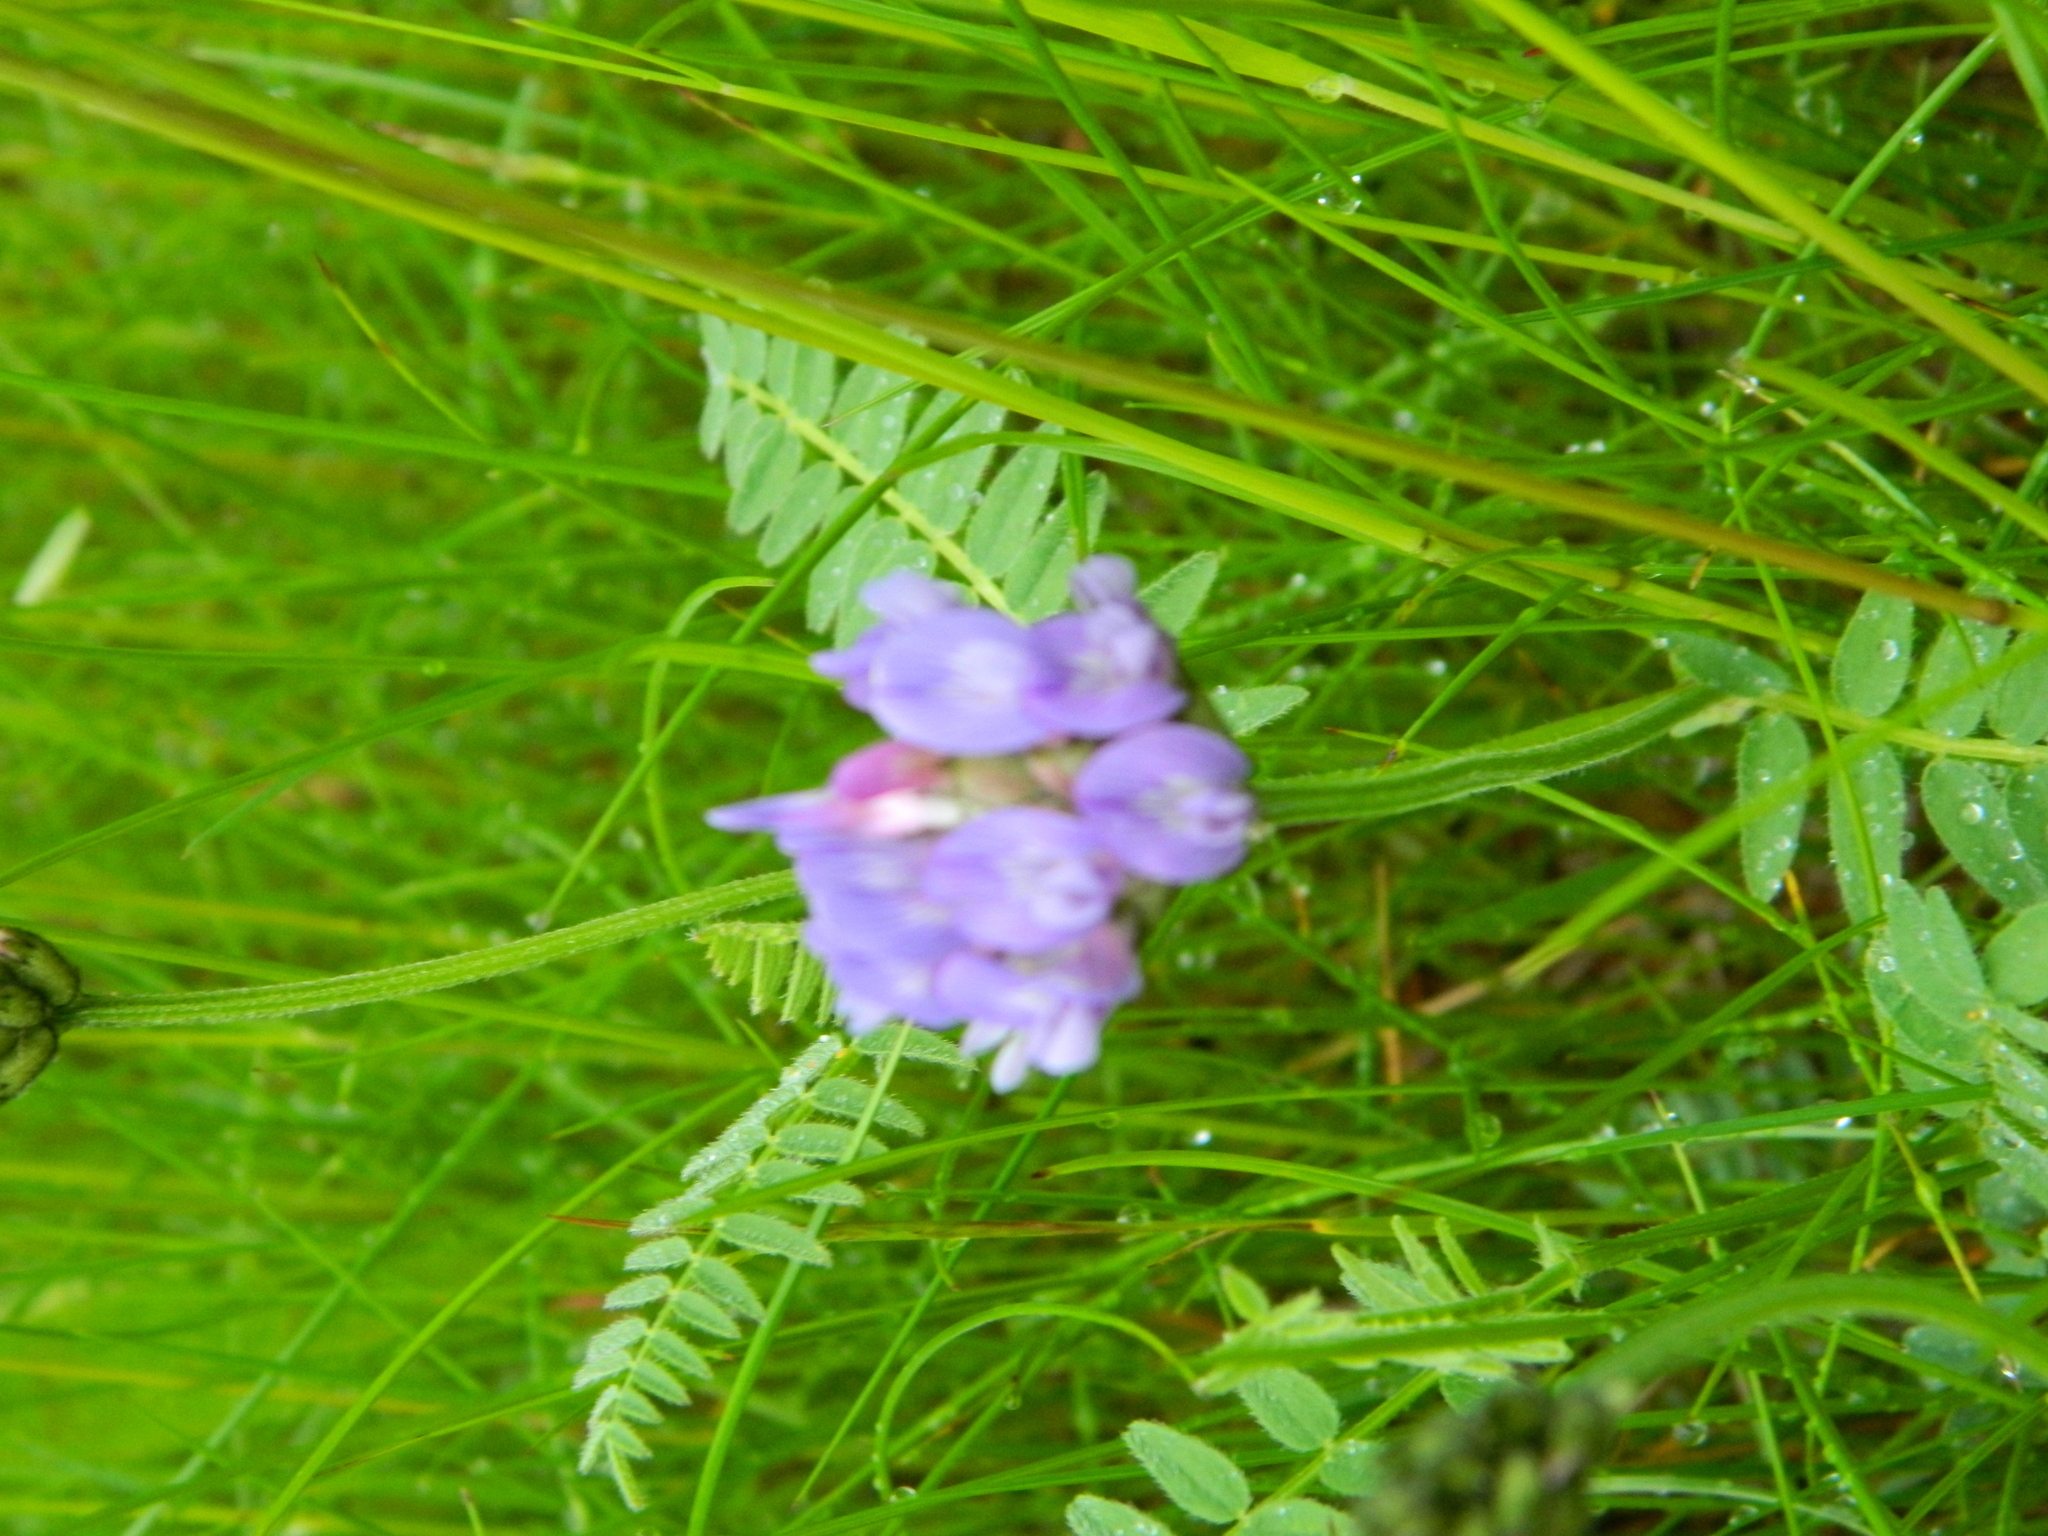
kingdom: Plantae
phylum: Tracheophyta
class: Magnoliopsida
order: Fabales
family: Fabaceae
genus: Astragalus
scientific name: Astragalus danicus
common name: Purple milk-vetch
